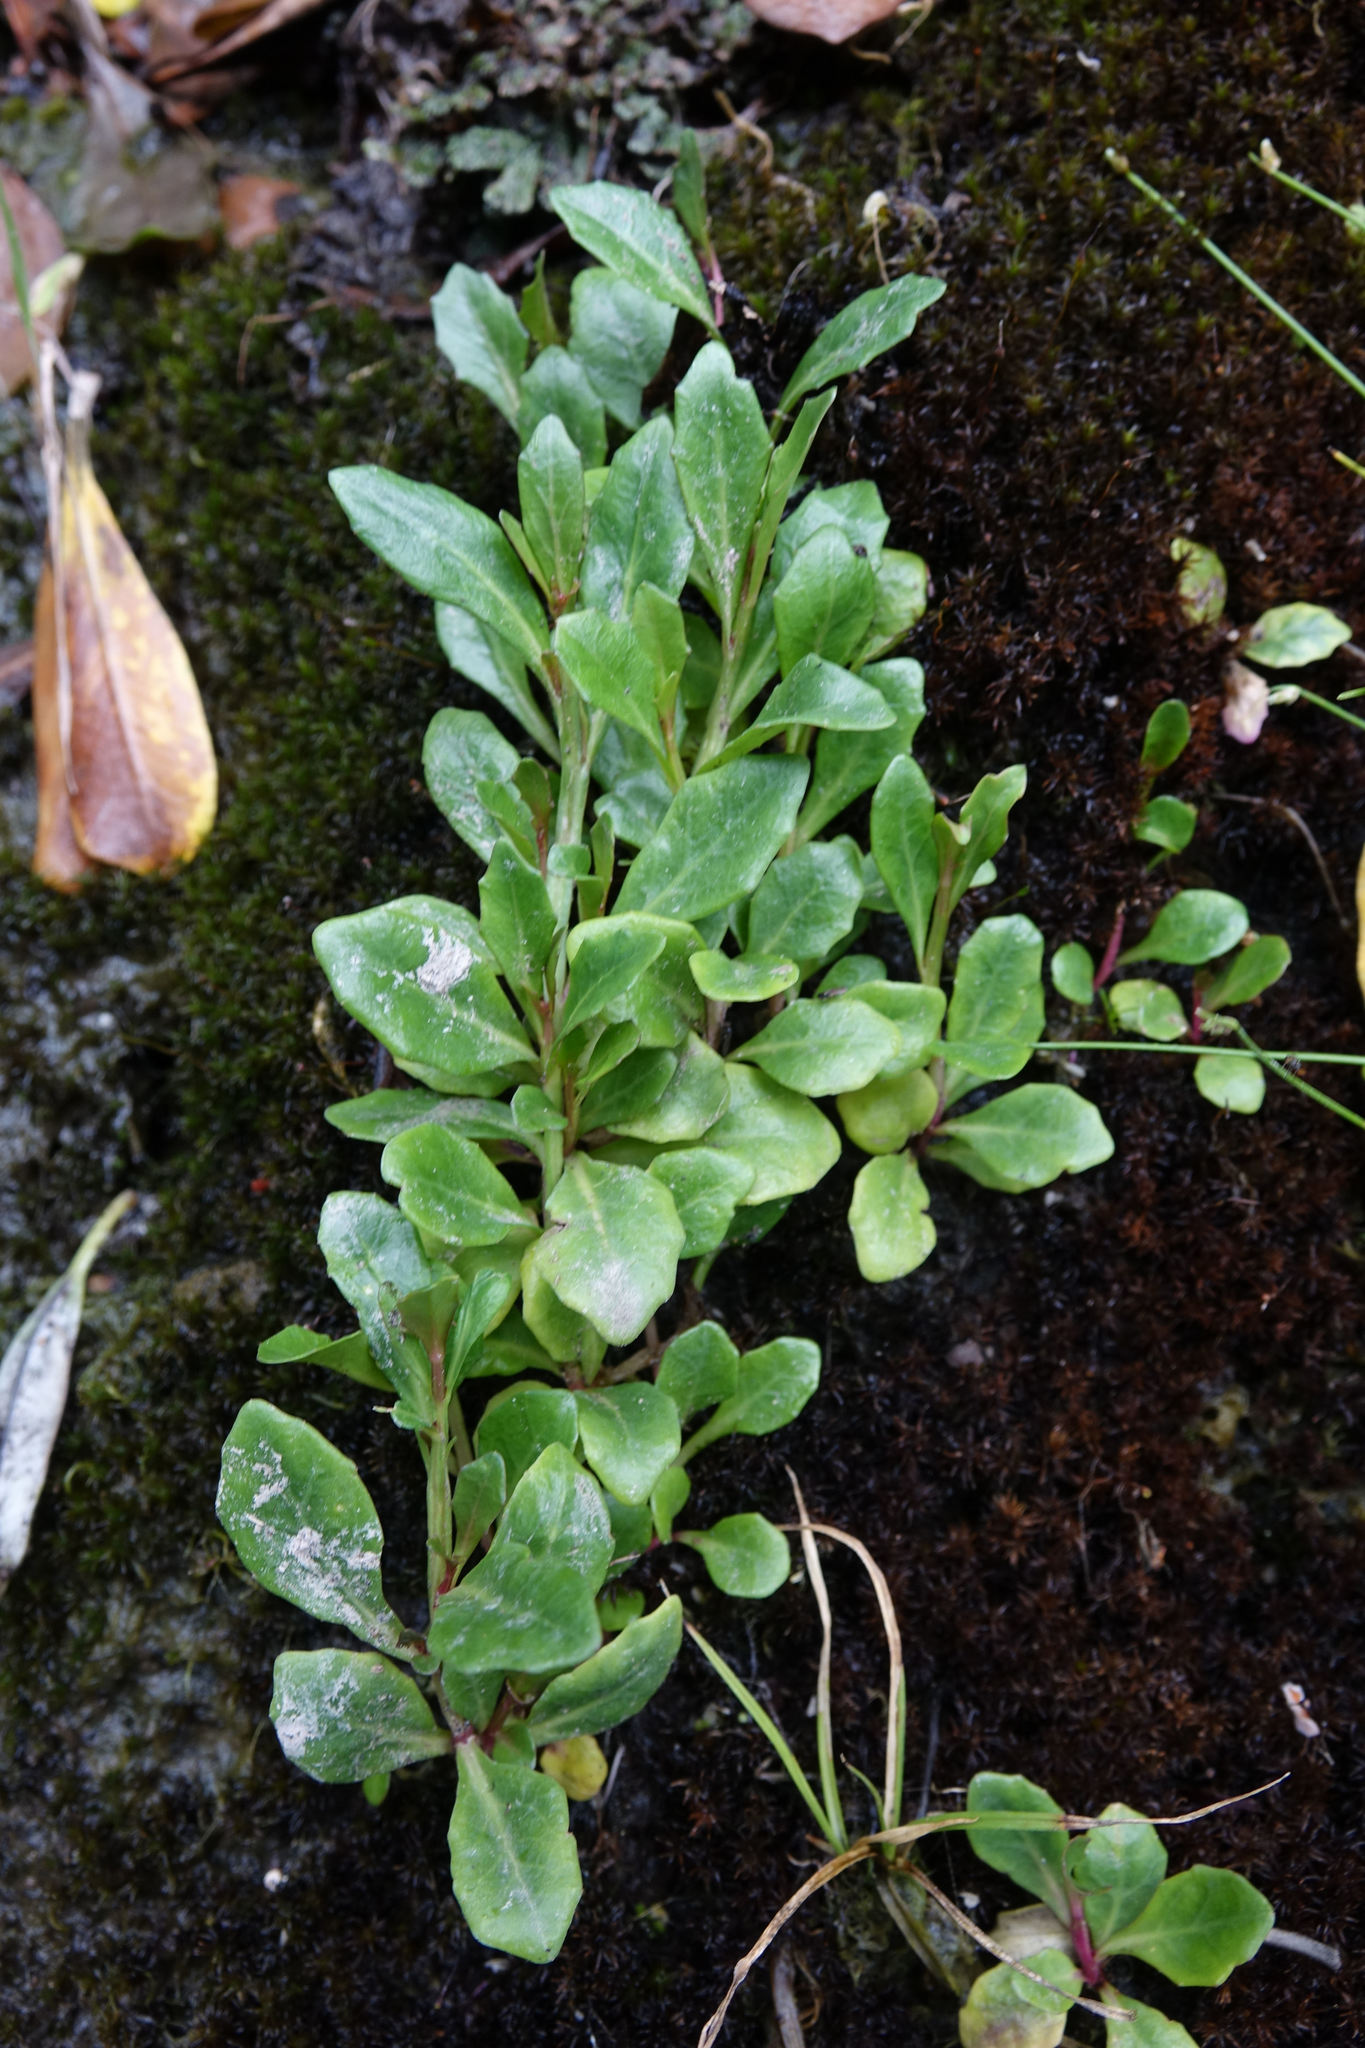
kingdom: Plantae
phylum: Tracheophyta
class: Magnoliopsida
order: Asterales
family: Campanulaceae
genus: Lobelia
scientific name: Lobelia anceps
